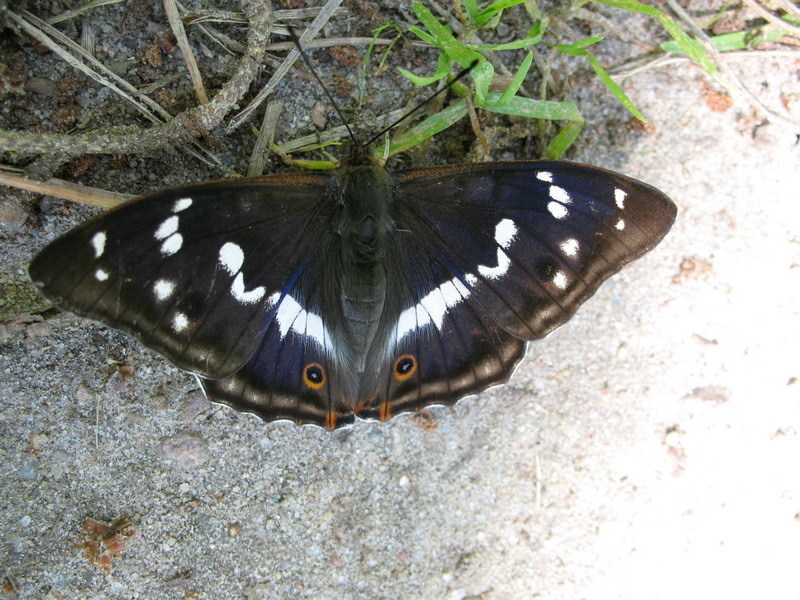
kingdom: Animalia
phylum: Arthropoda
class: Insecta
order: Lepidoptera
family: Nymphalidae
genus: Apatura
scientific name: Apatura iris
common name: Purple emperor
